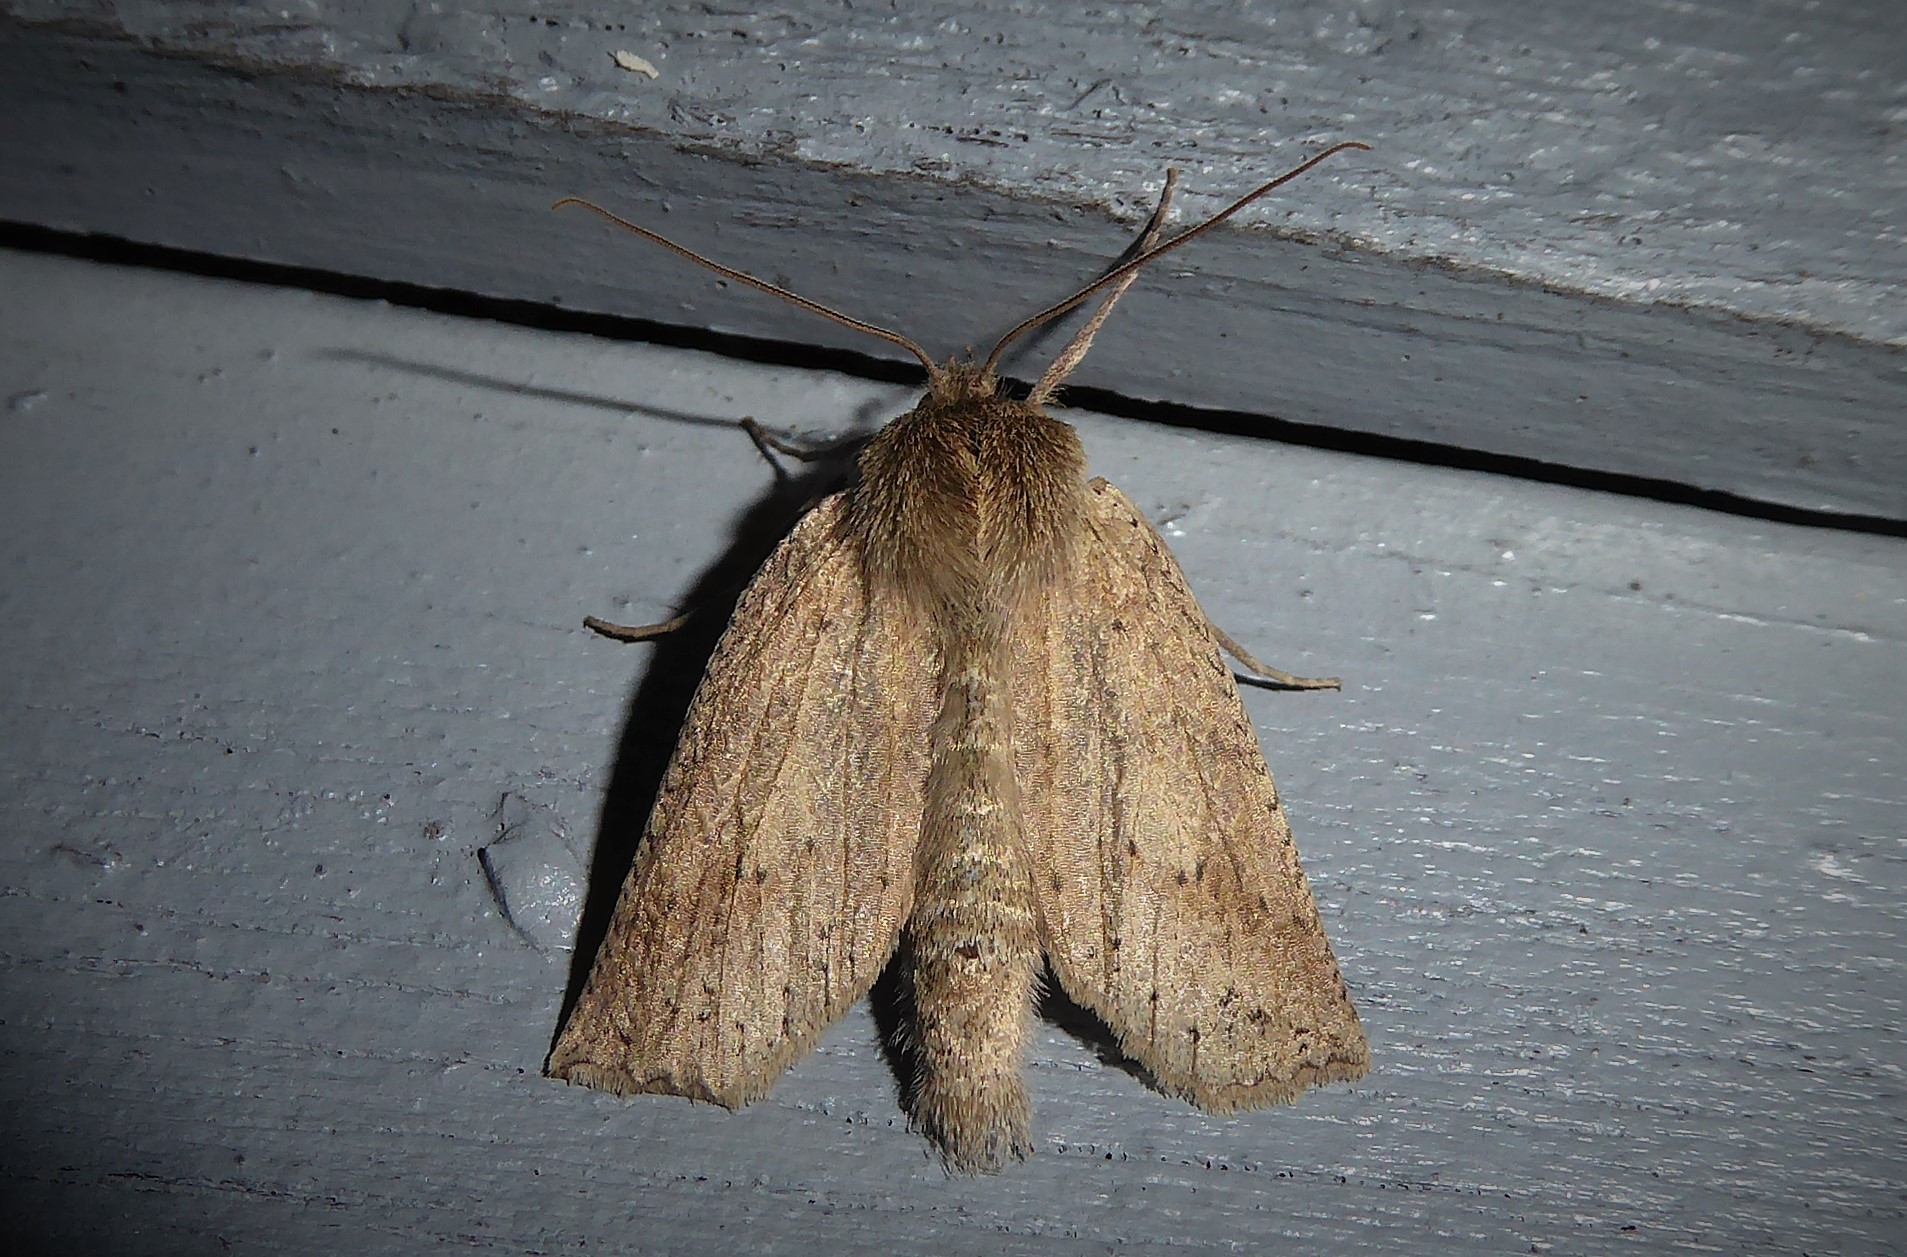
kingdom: Animalia
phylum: Arthropoda
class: Insecta
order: Lepidoptera
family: Geometridae
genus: Declana
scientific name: Declana leptomera
